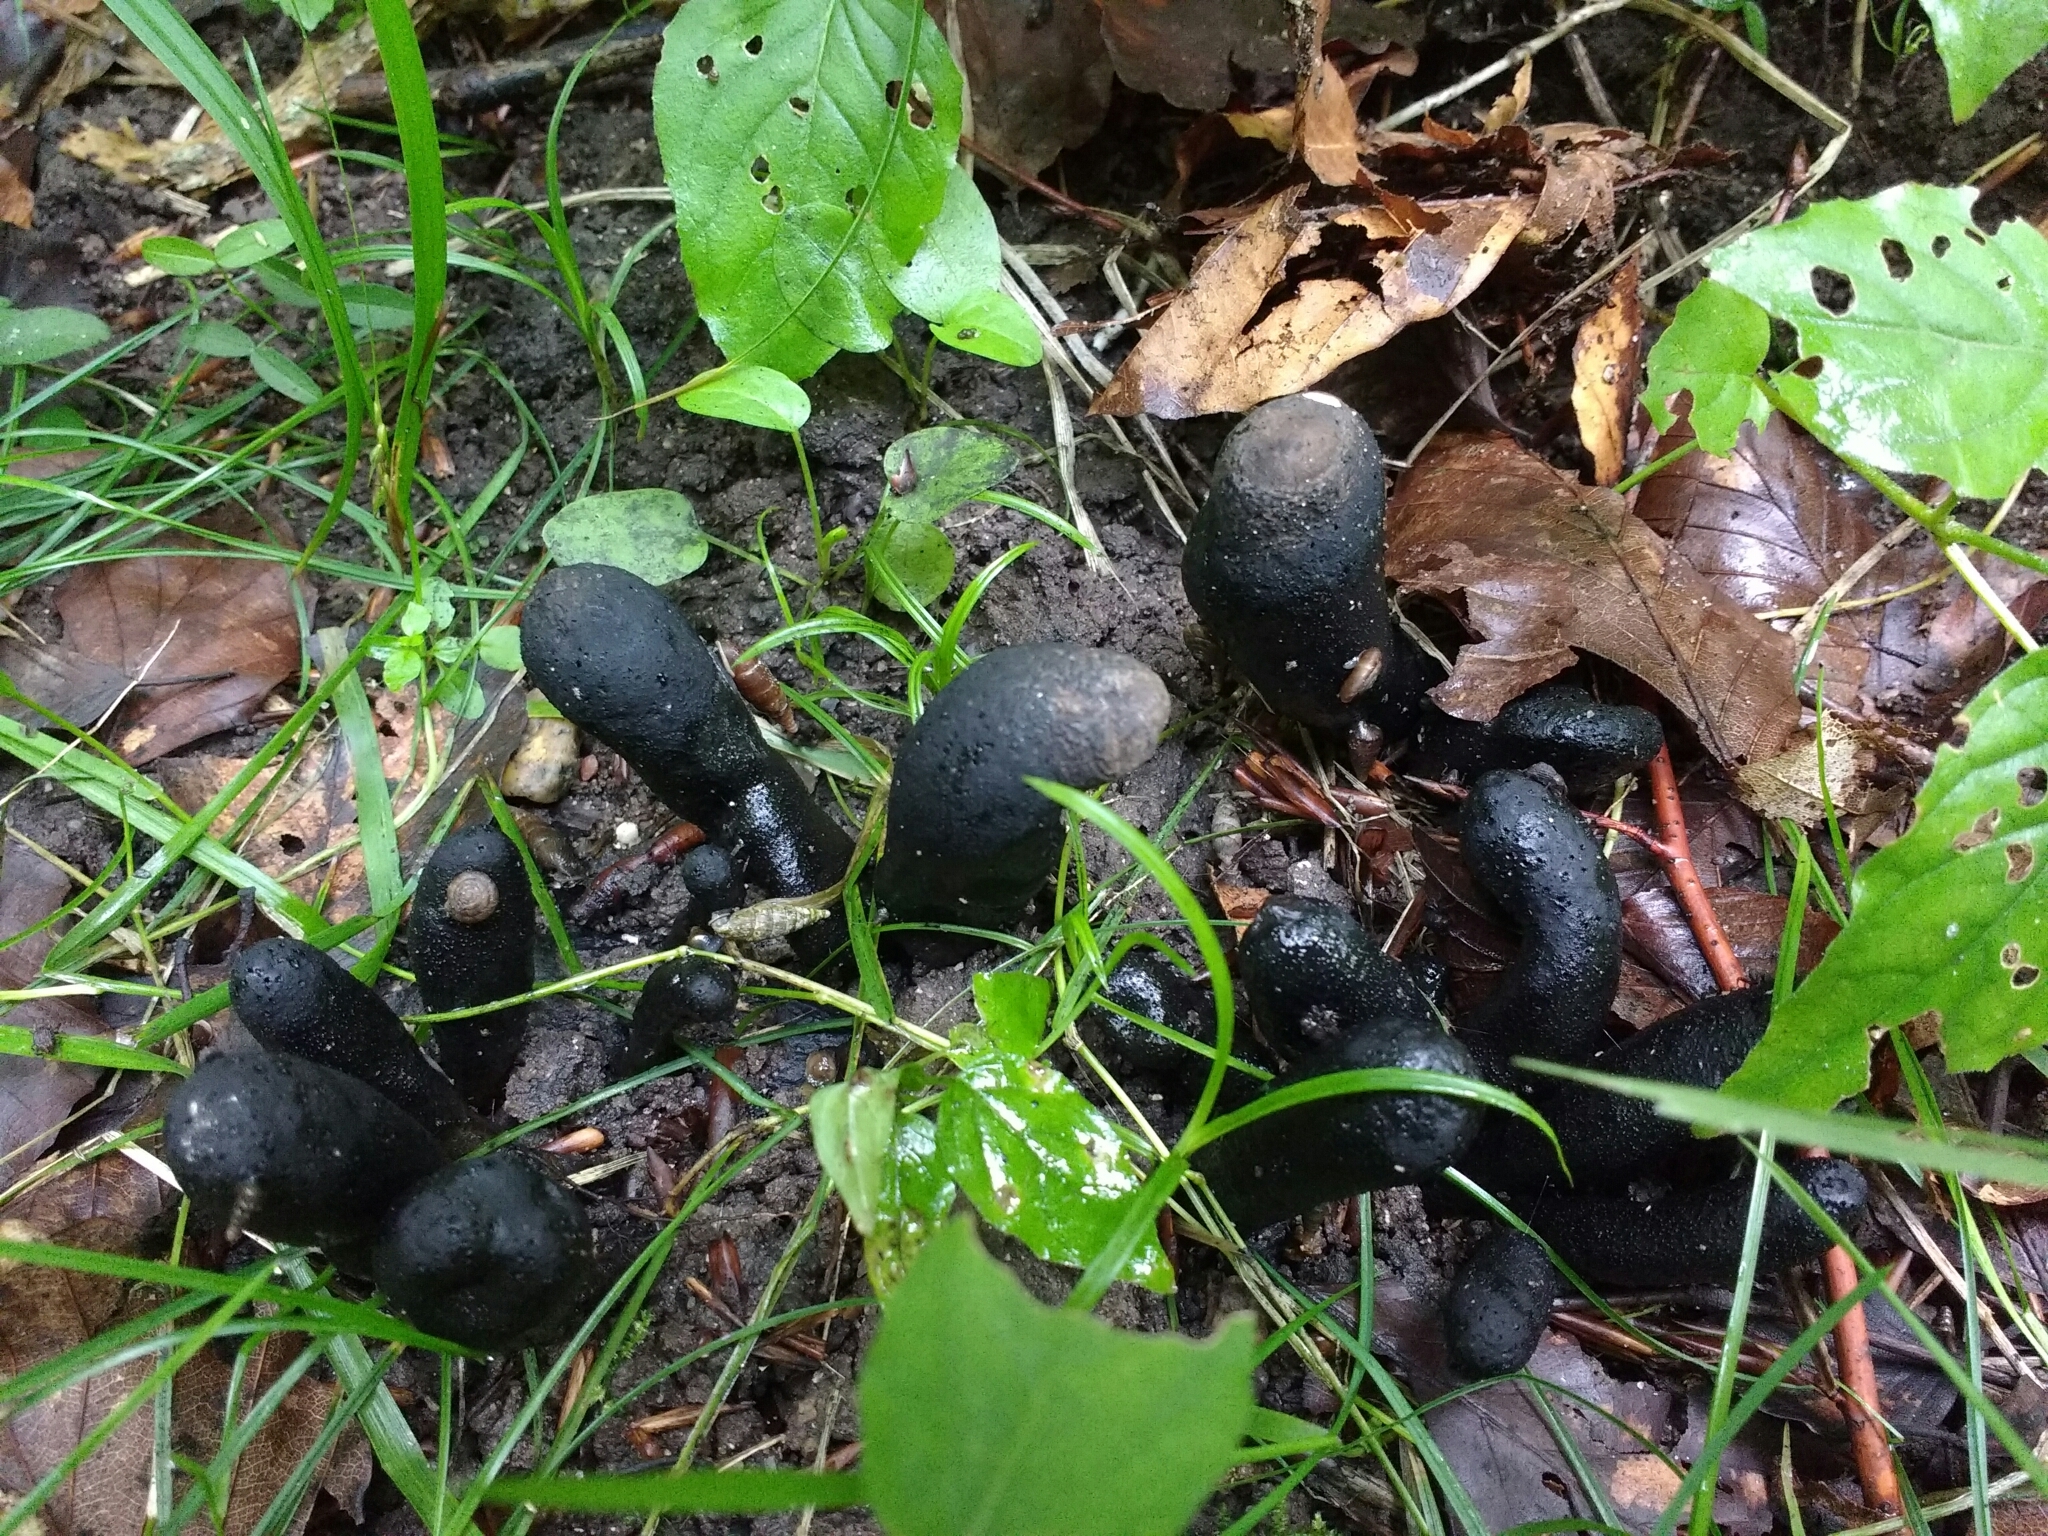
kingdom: Fungi
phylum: Ascomycota
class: Sordariomycetes
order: Xylariales
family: Xylariaceae
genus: Xylaria
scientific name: Xylaria polymorpha
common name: Dead man's fingers
